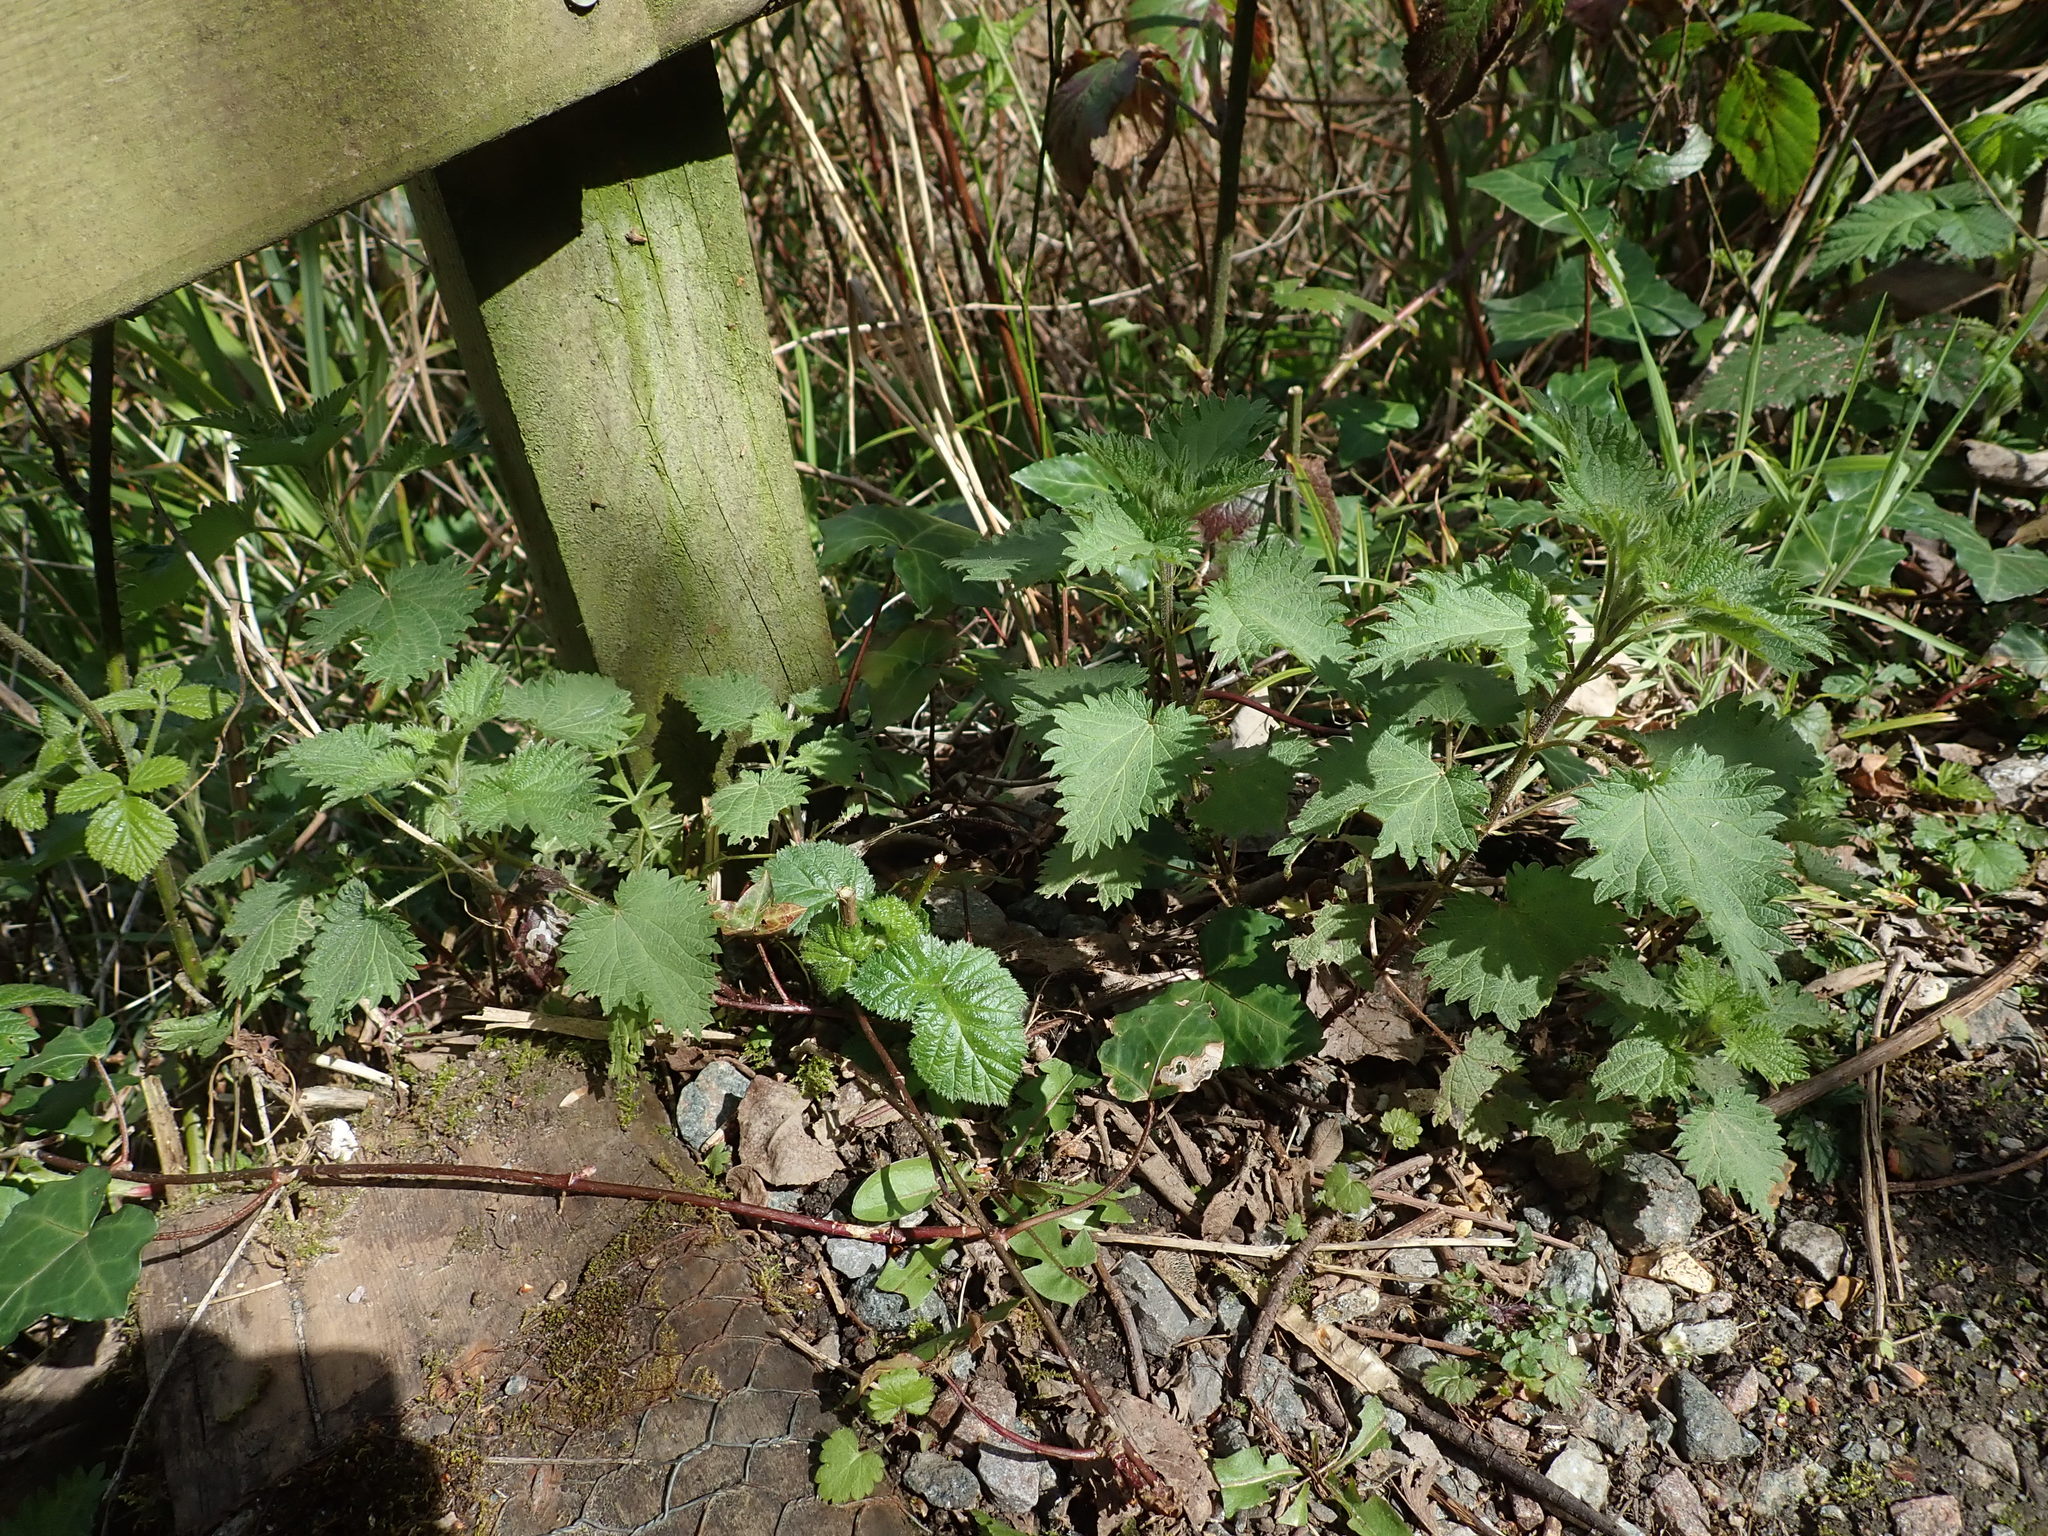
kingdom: Plantae
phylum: Tracheophyta
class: Magnoliopsida
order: Rosales
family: Urticaceae
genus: Urtica
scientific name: Urtica dioica
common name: Common nettle
